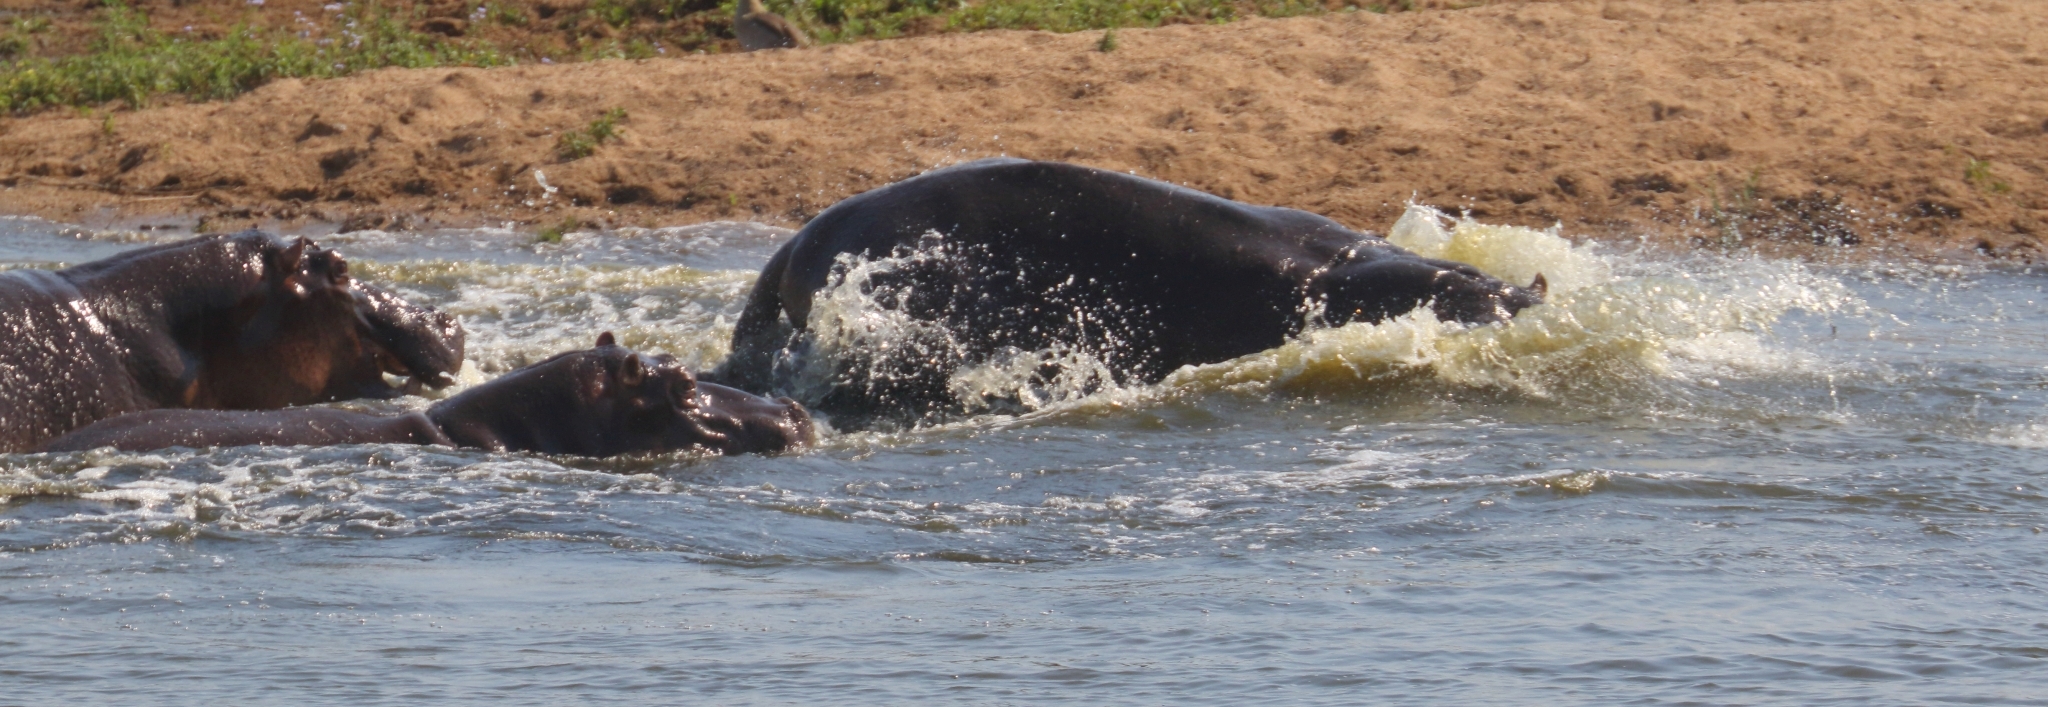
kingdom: Animalia
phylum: Chordata
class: Mammalia
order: Artiodactyla
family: Hippopotamidae
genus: Hippopotamus
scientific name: Hippopotamus amphibius
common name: Common hippopotamus
